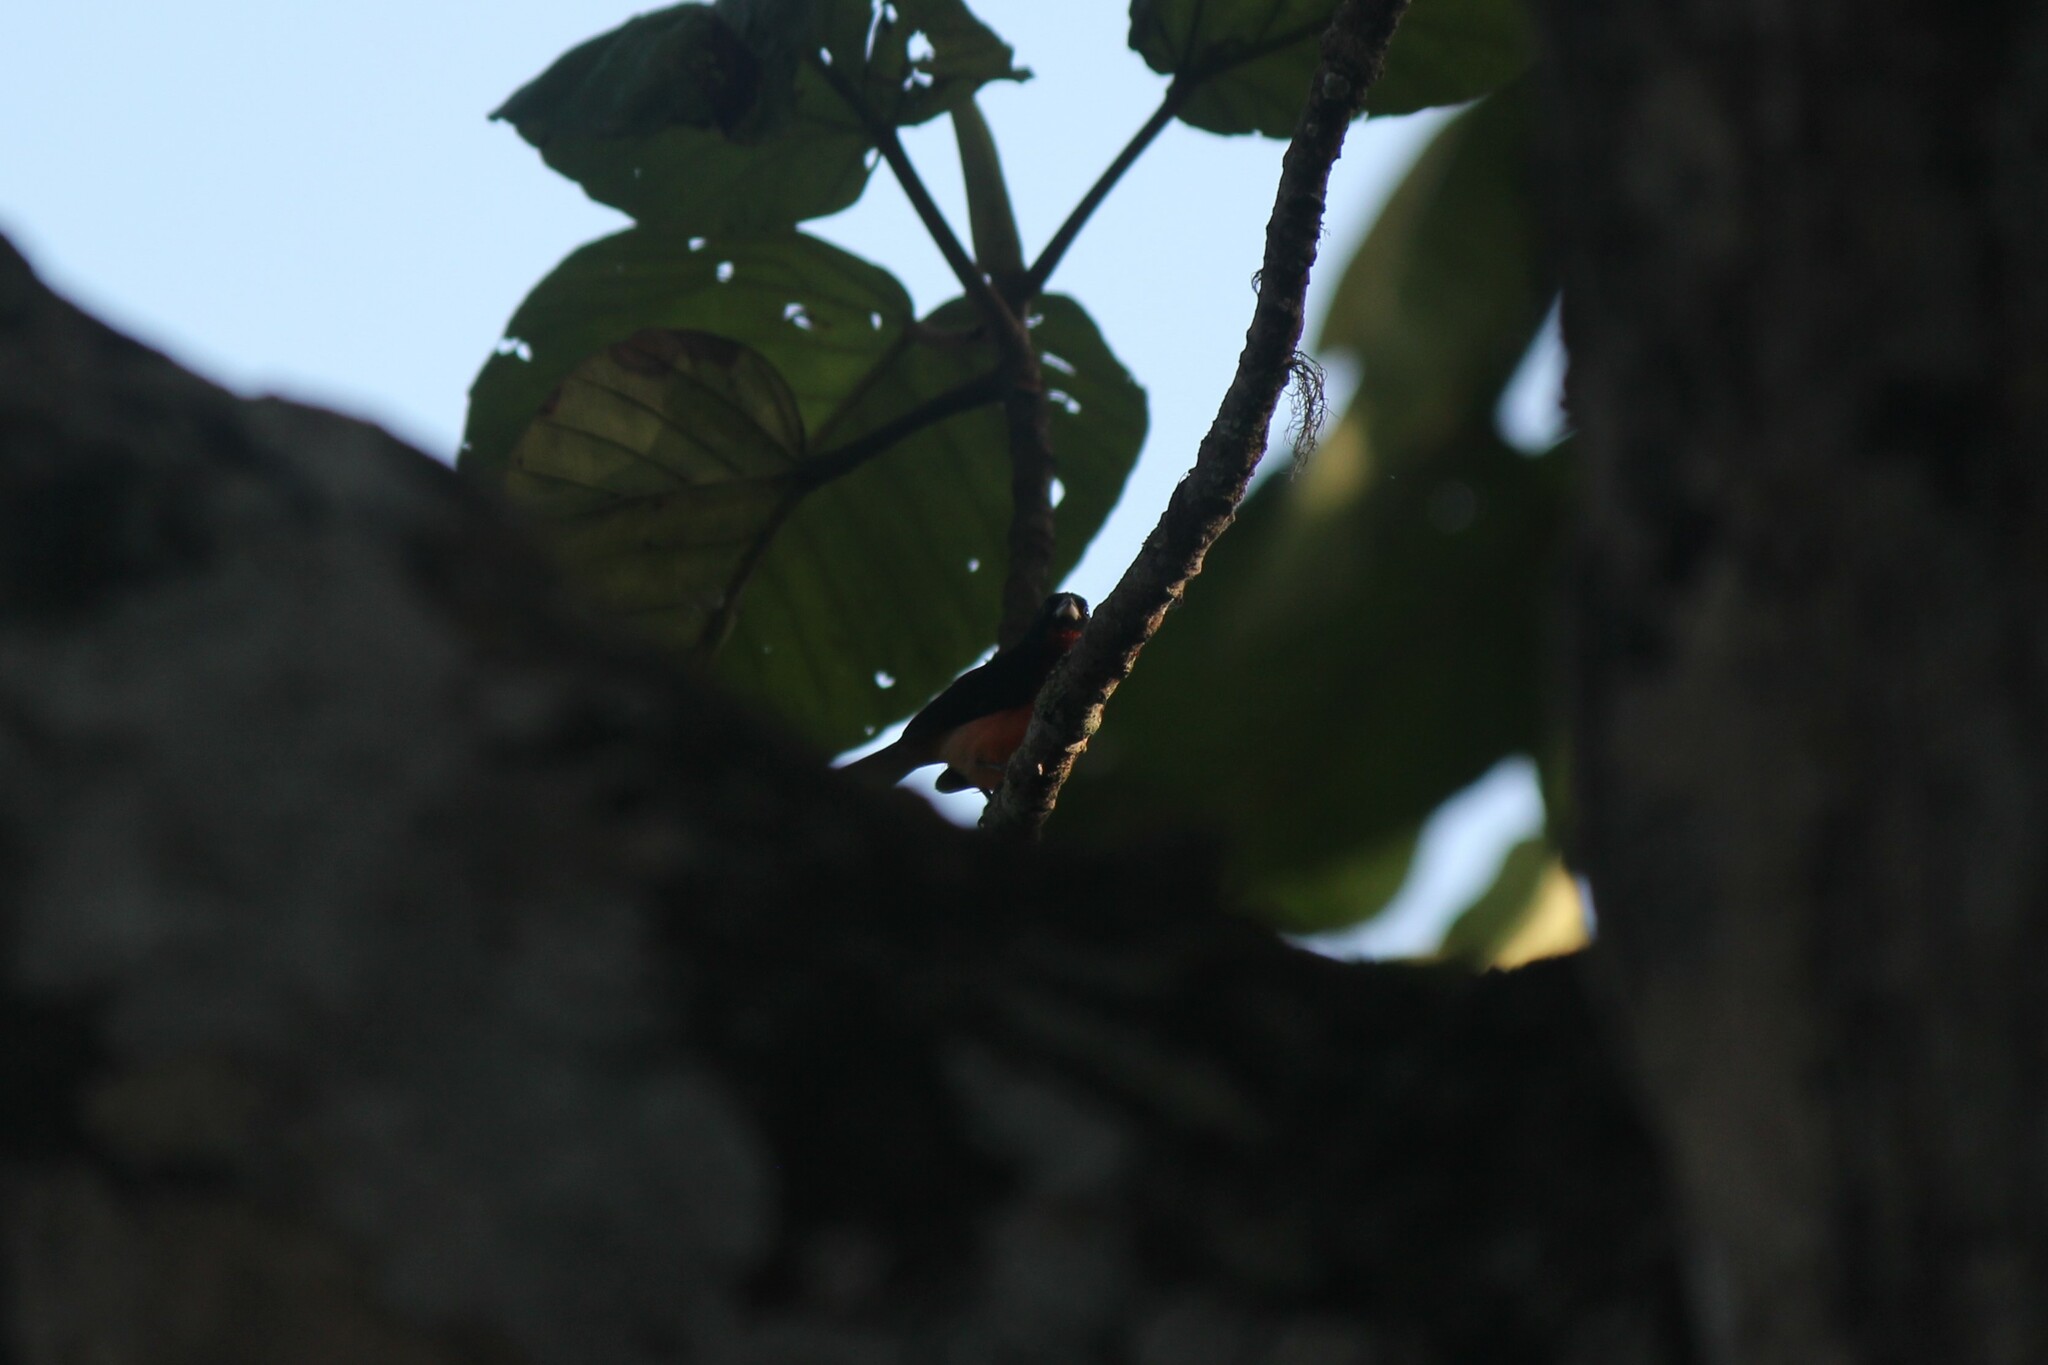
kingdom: Animalia
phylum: Chordata
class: Aves
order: Passeriformes
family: Thraupidae
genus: Rhodospingus
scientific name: Rhodospingus cruentus
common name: Crimson-breasted finch
